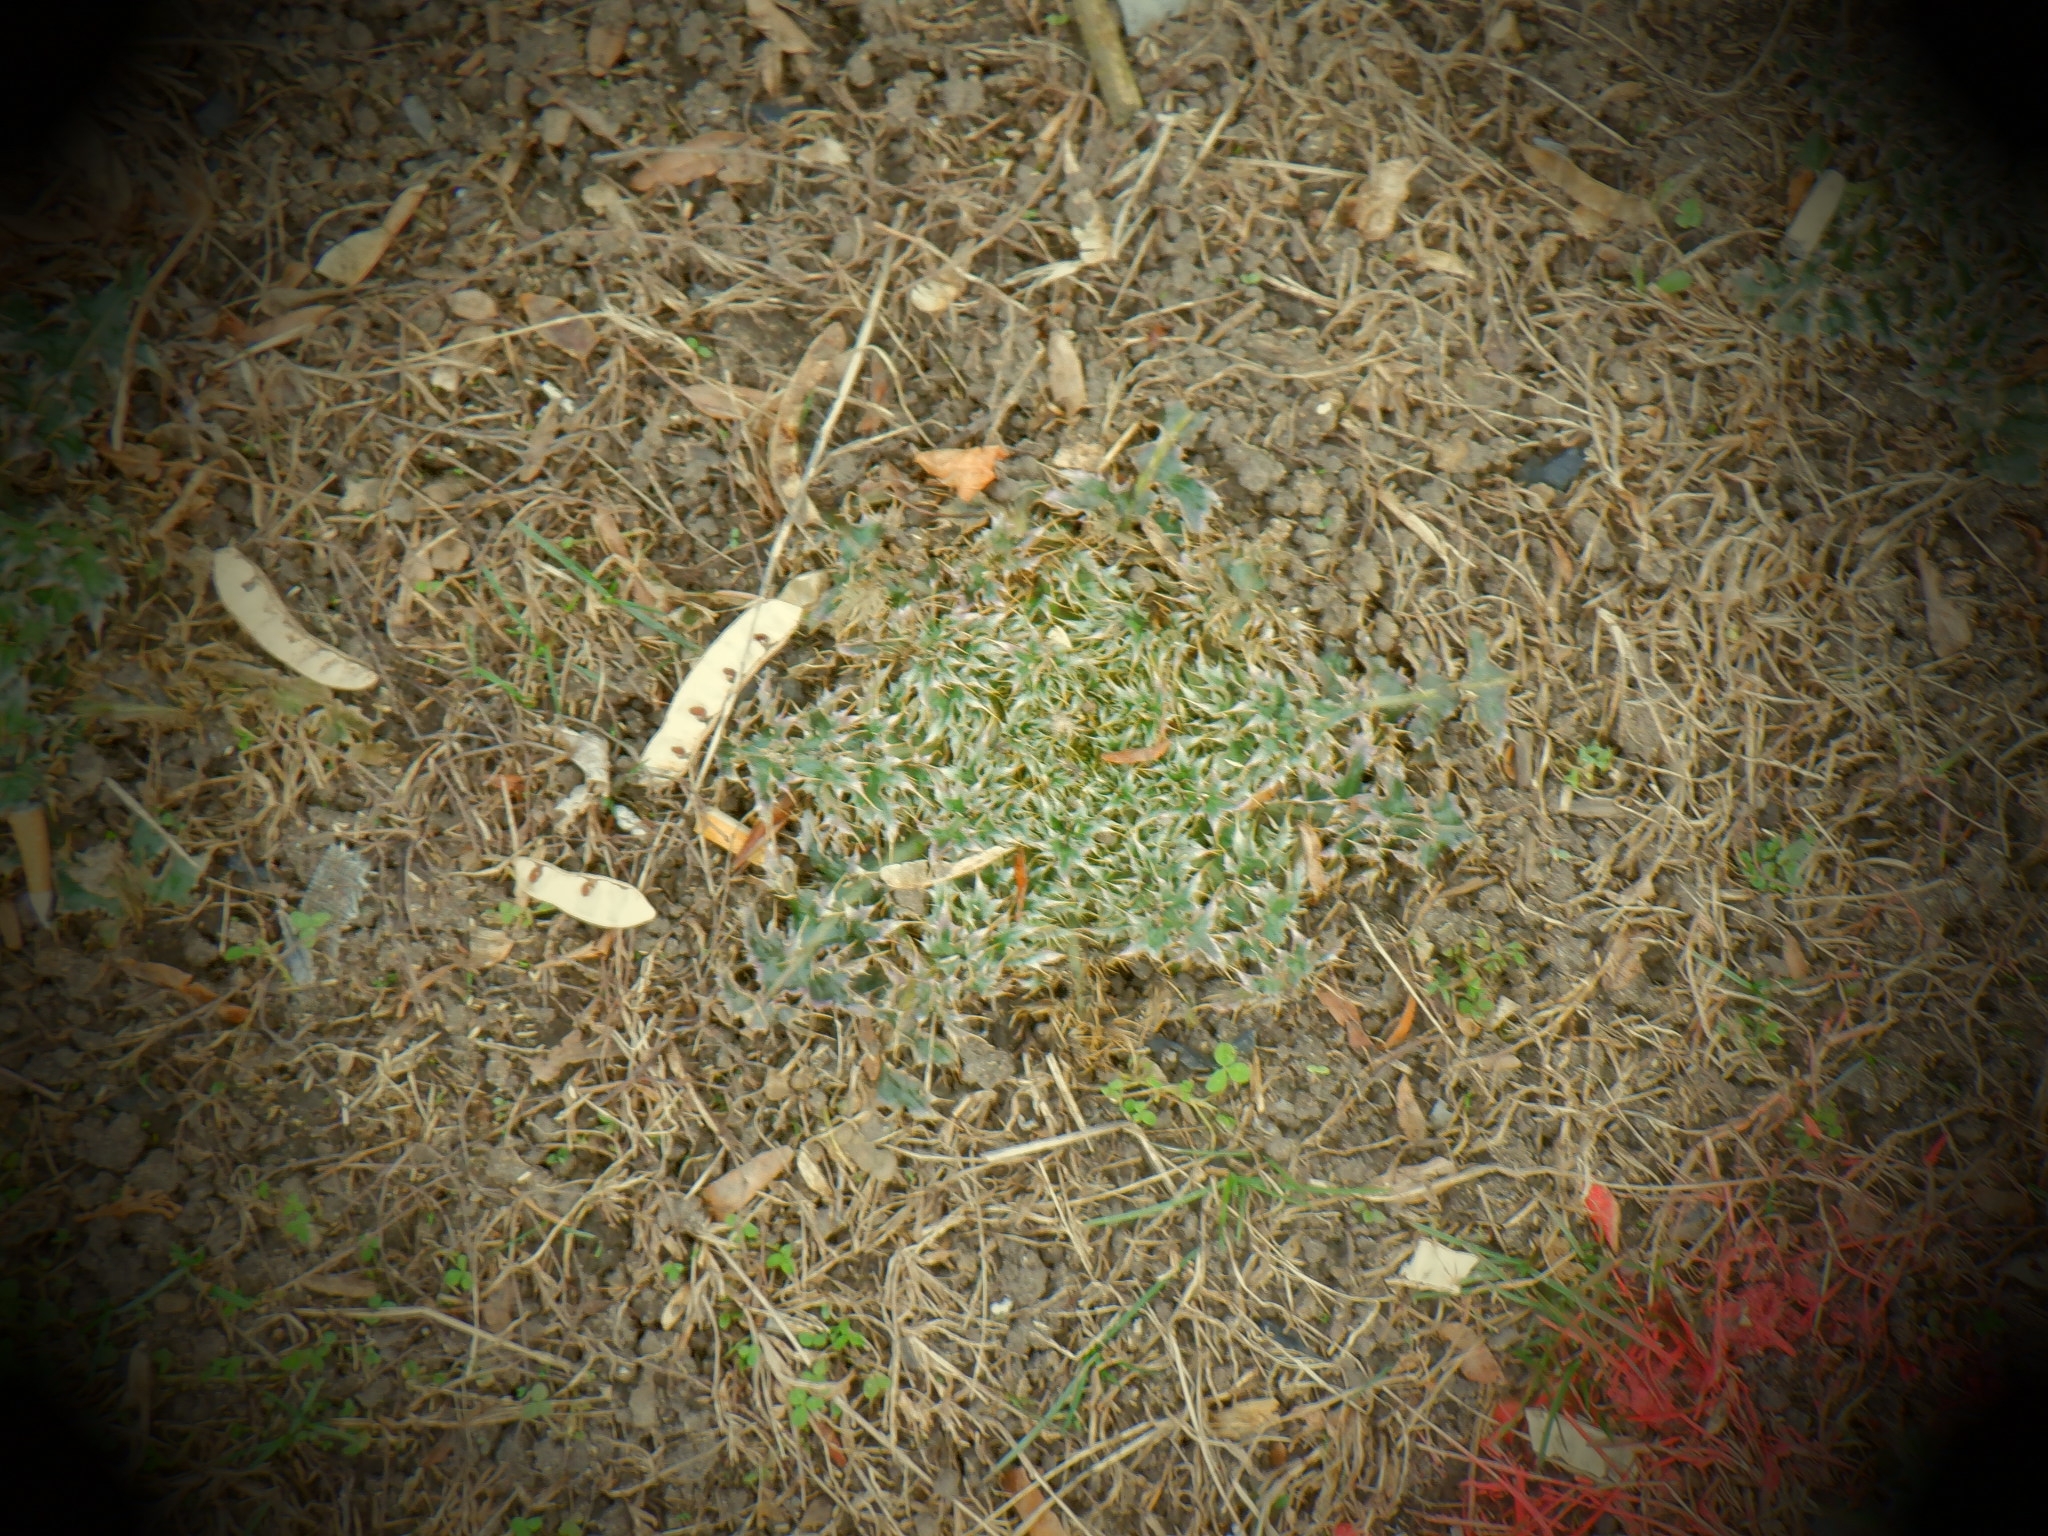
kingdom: Plantae
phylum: Tracheophyta
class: Magnoliopsida
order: Asterales
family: Asteraceae
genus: Carduus
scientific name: Carduus nutans
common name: Musk thistle
